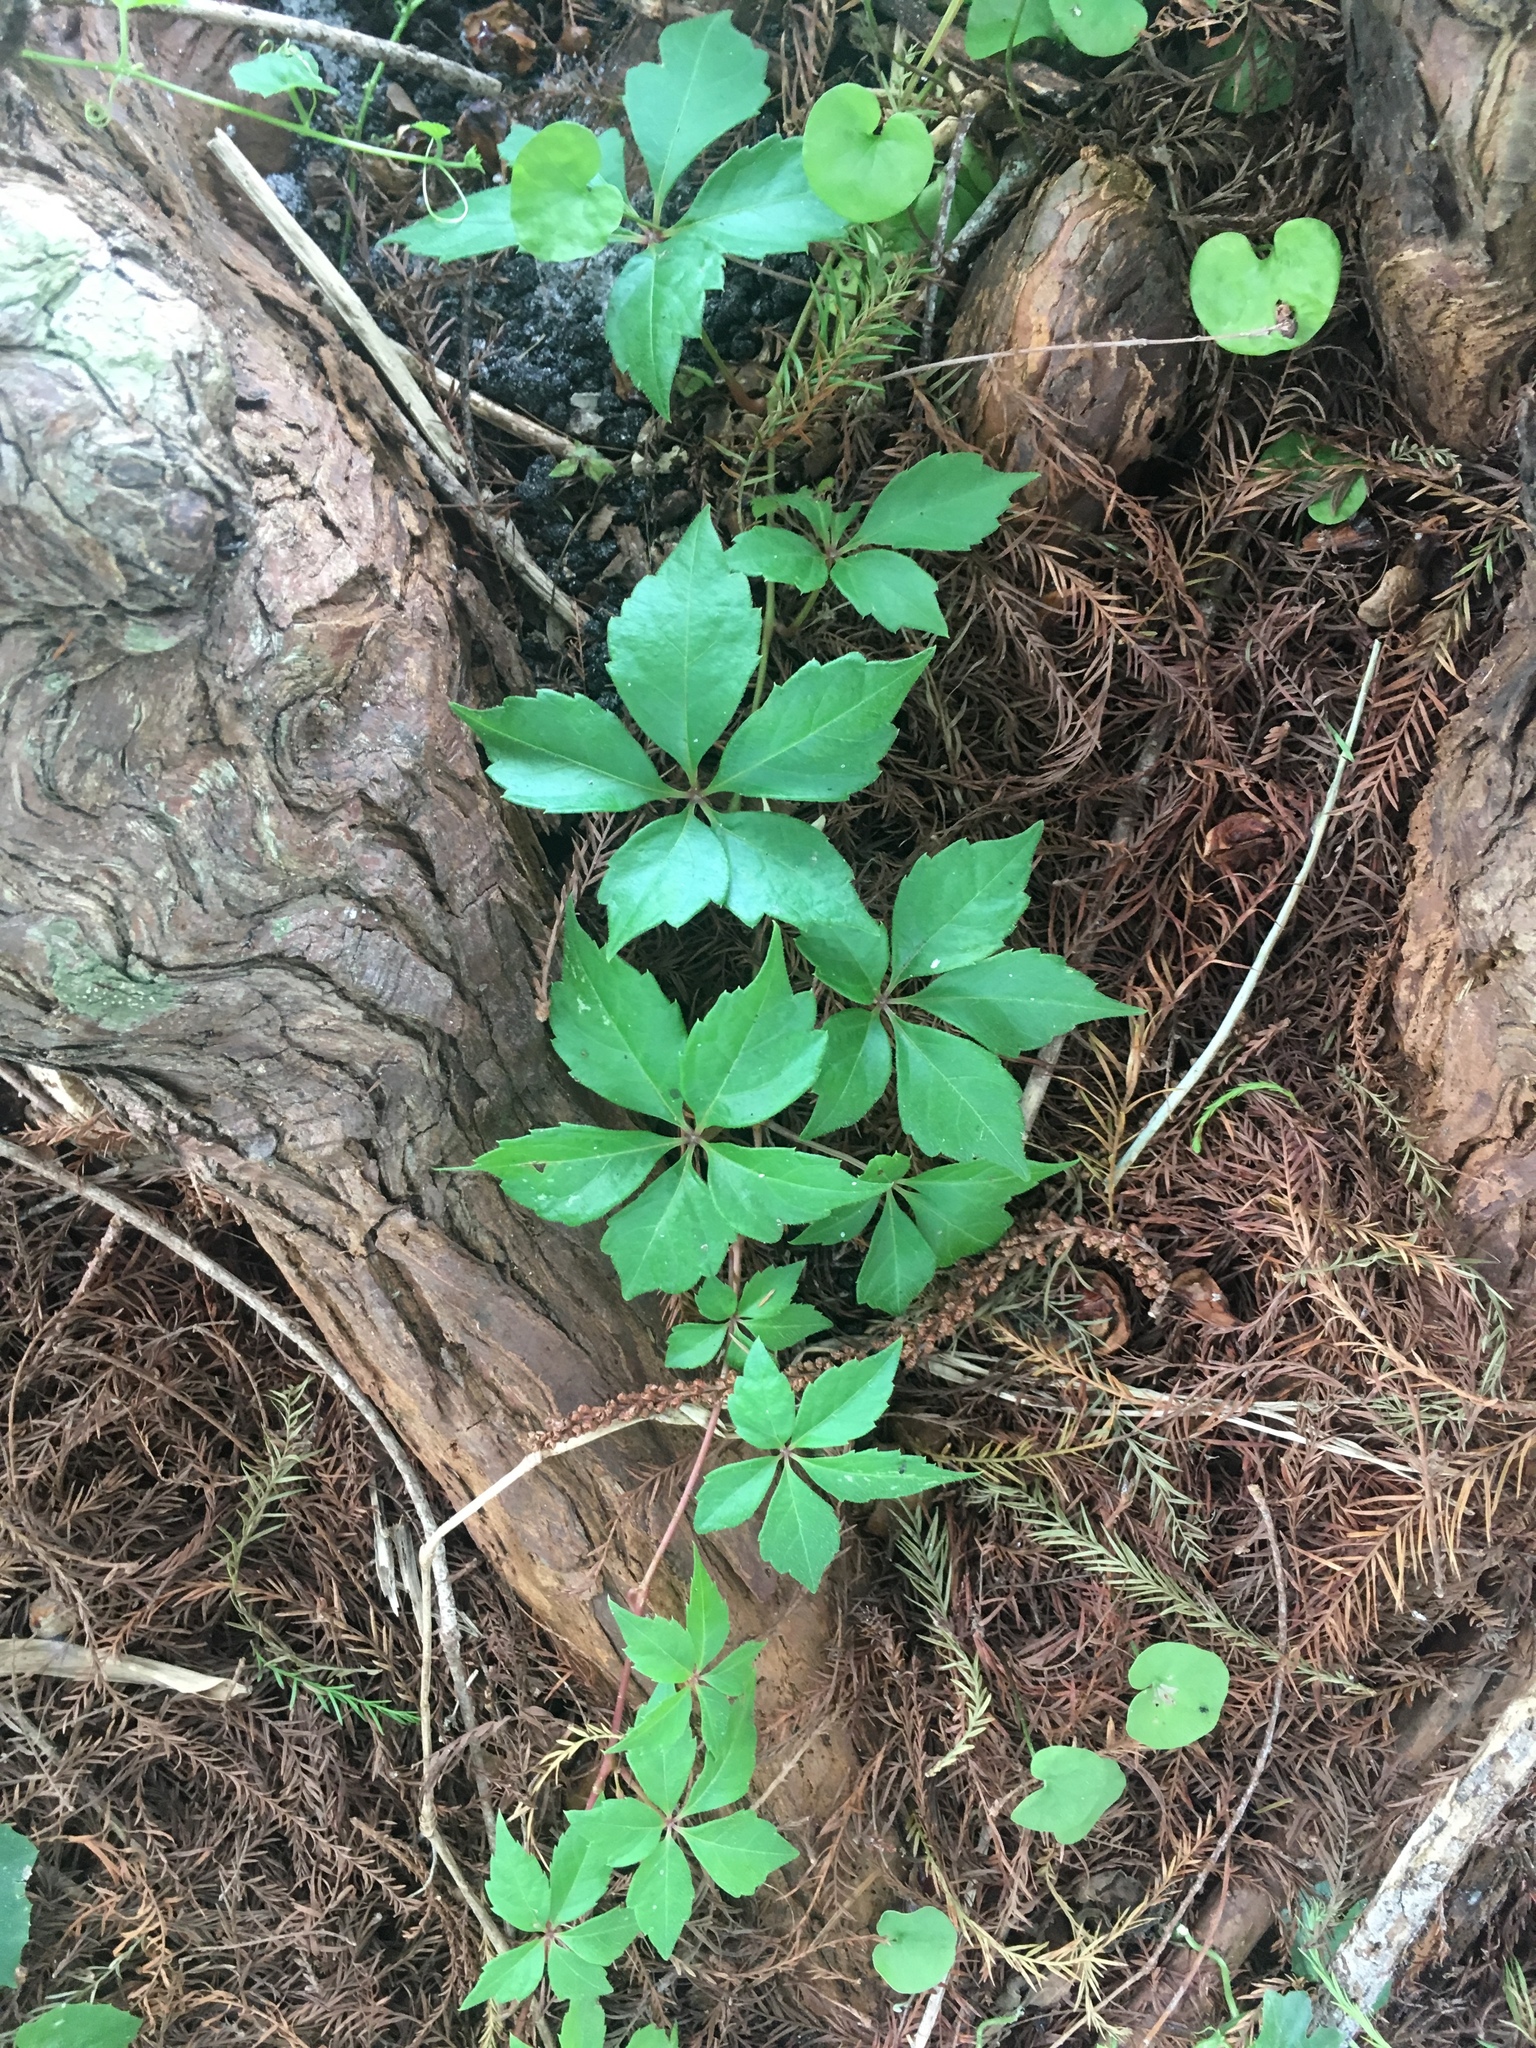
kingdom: Plantae
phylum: Tracheophyta
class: Magnoliopsida
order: Vitales
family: Vitaceae
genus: Parthenocissus
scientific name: Parthenocissus quinquefolia
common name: Virginia-creeper
